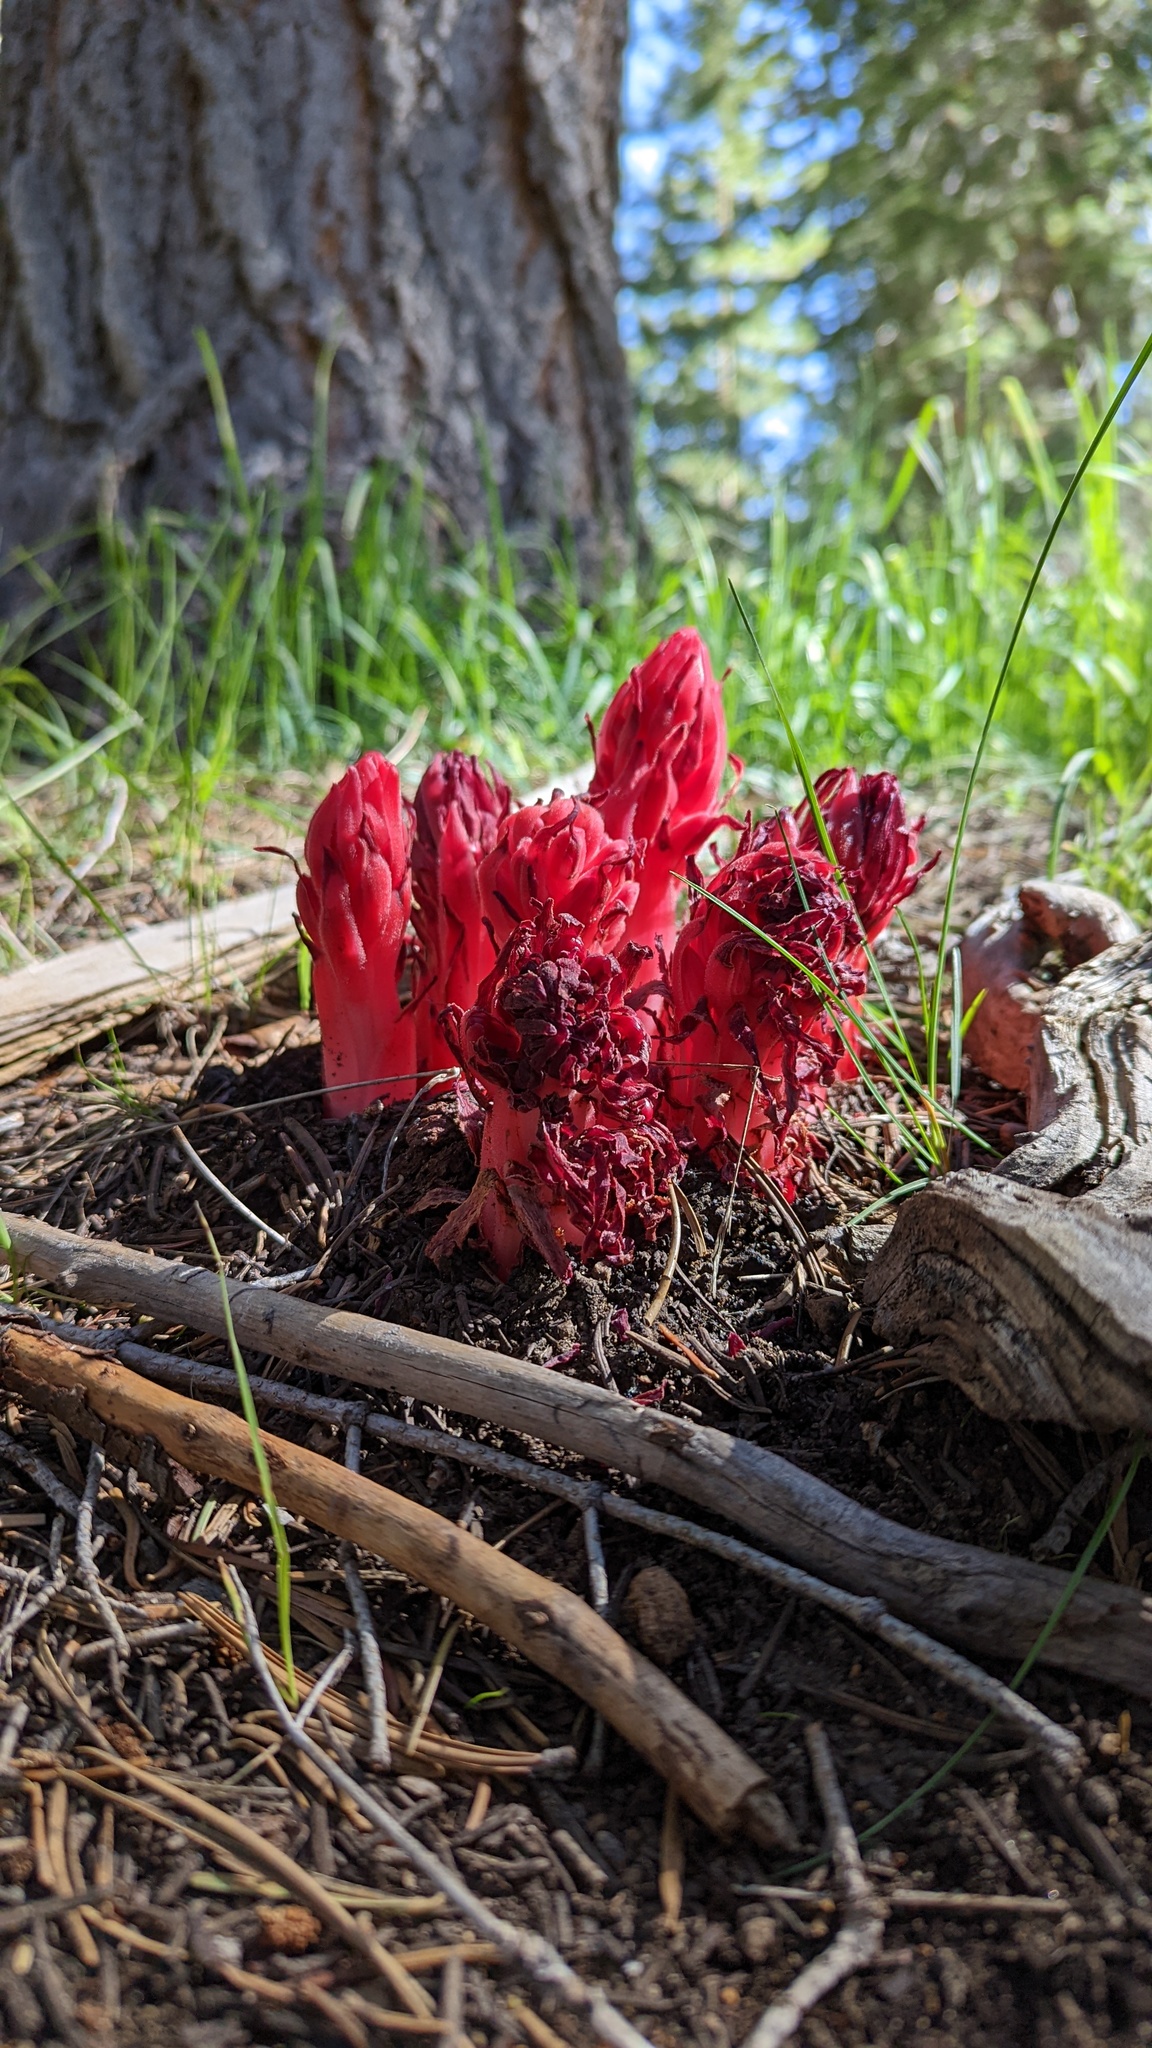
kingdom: Plantae
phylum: Tracheophyta
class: Magnoliopsida
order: Ericales
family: Ericaceae
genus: Sarcodes
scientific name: Sarcodes sanguinea
